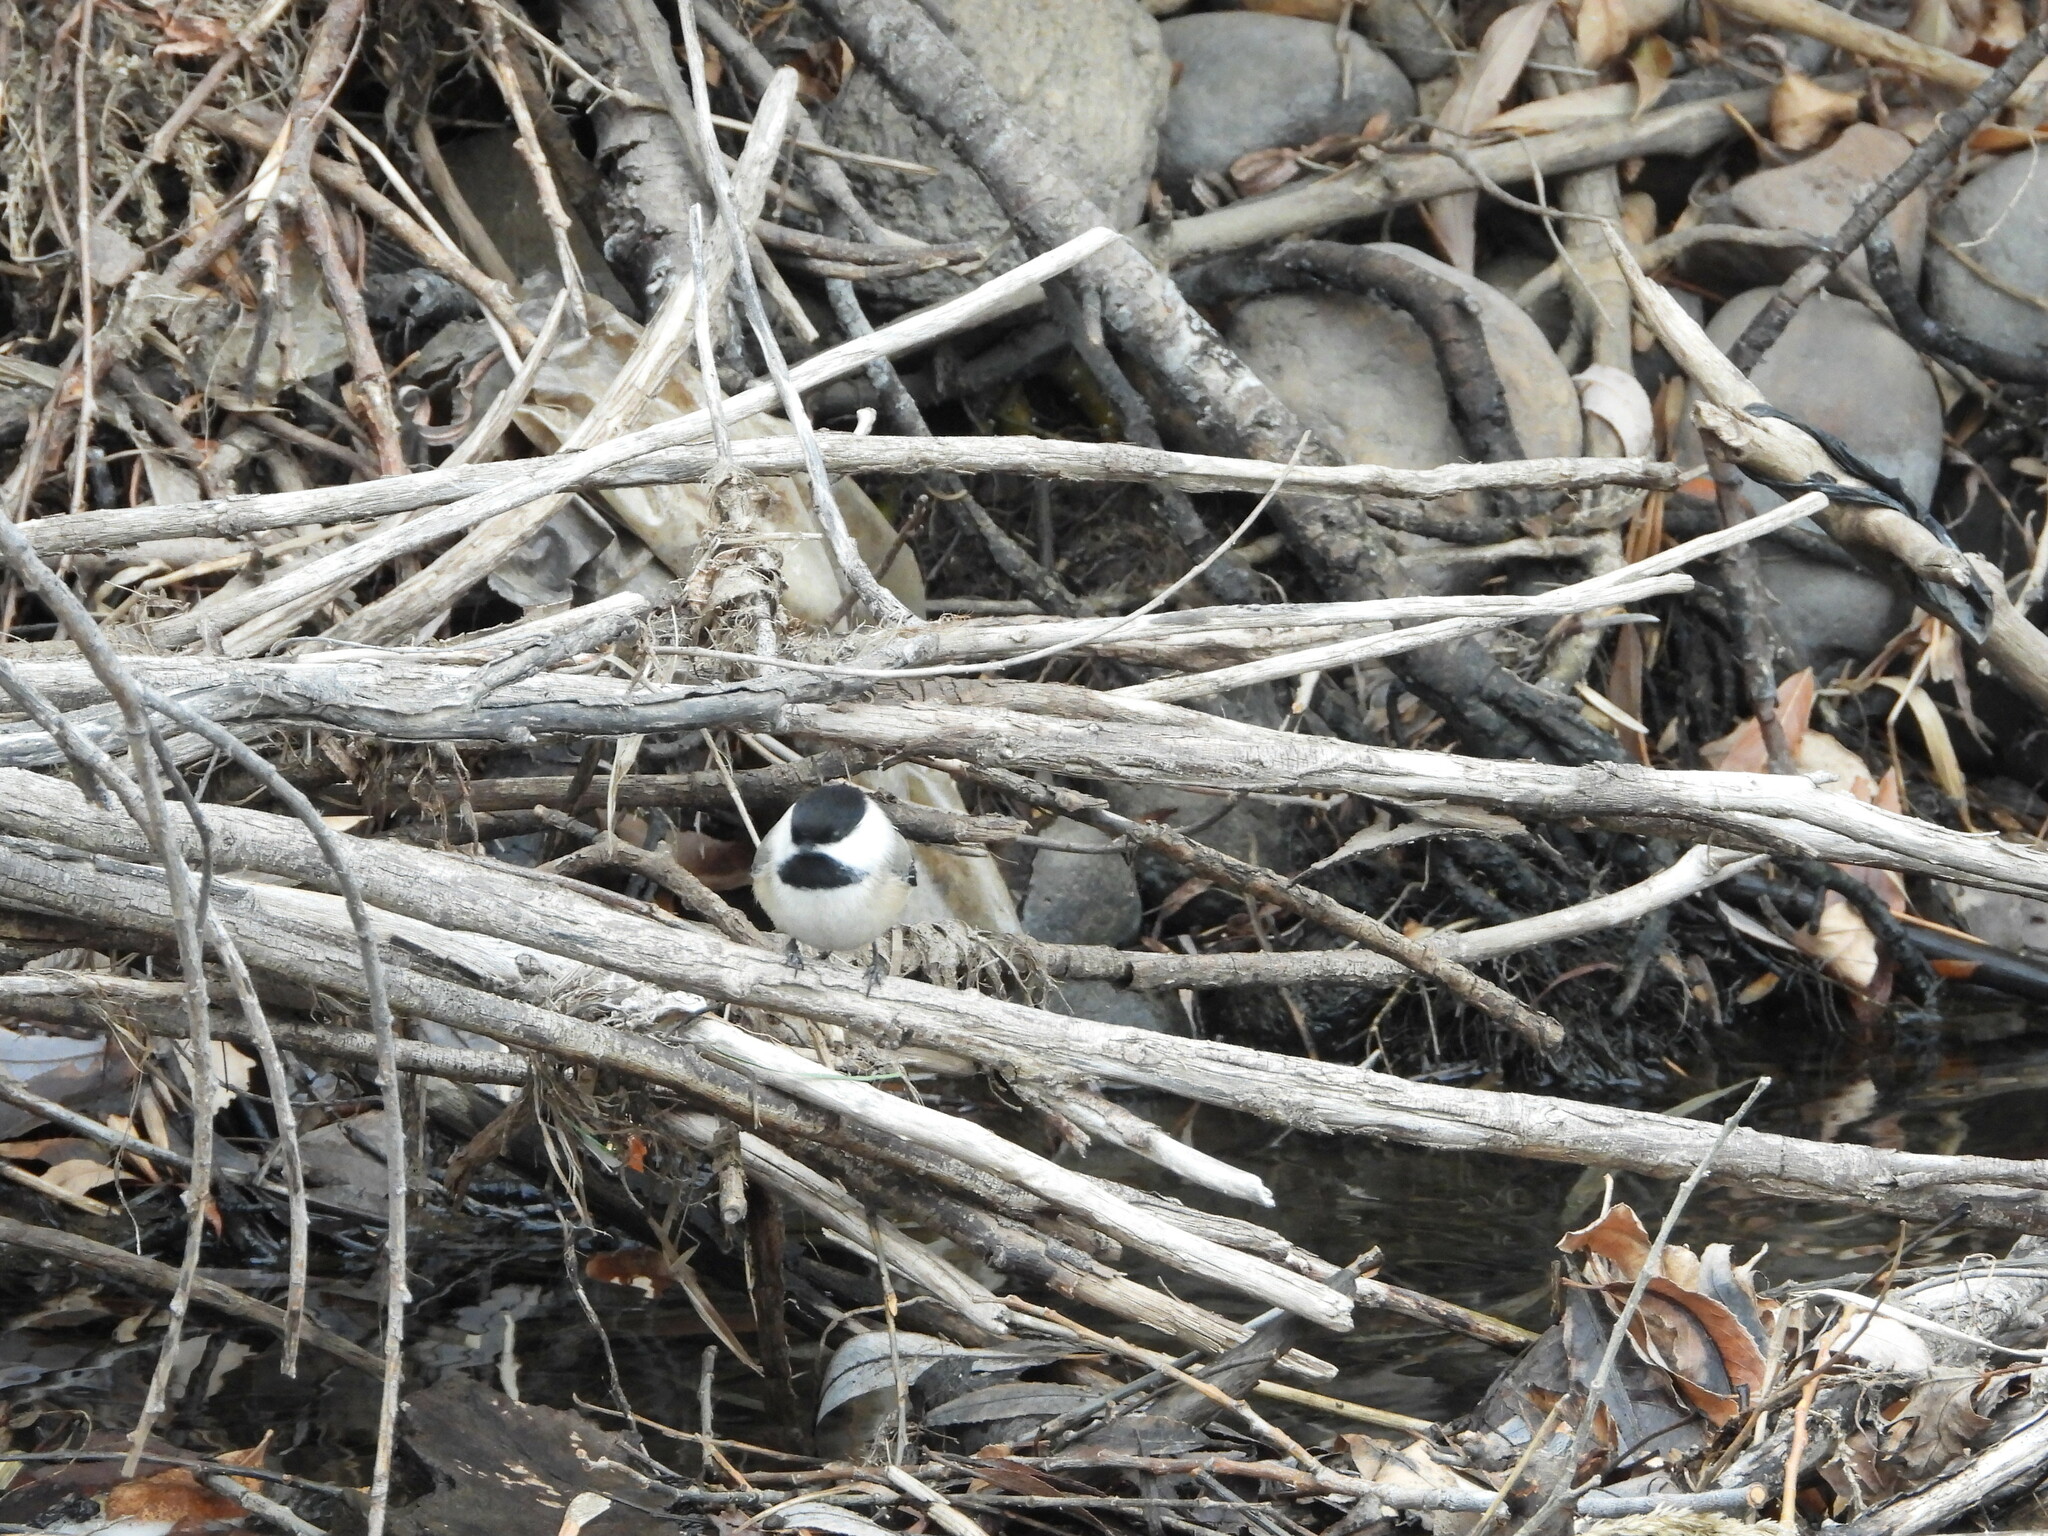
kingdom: Animalia
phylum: Chordata
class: Aves
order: Passeriformes
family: Paridae
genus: Poecile
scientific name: Poecile atricapillus
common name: Black-capped chickadee
